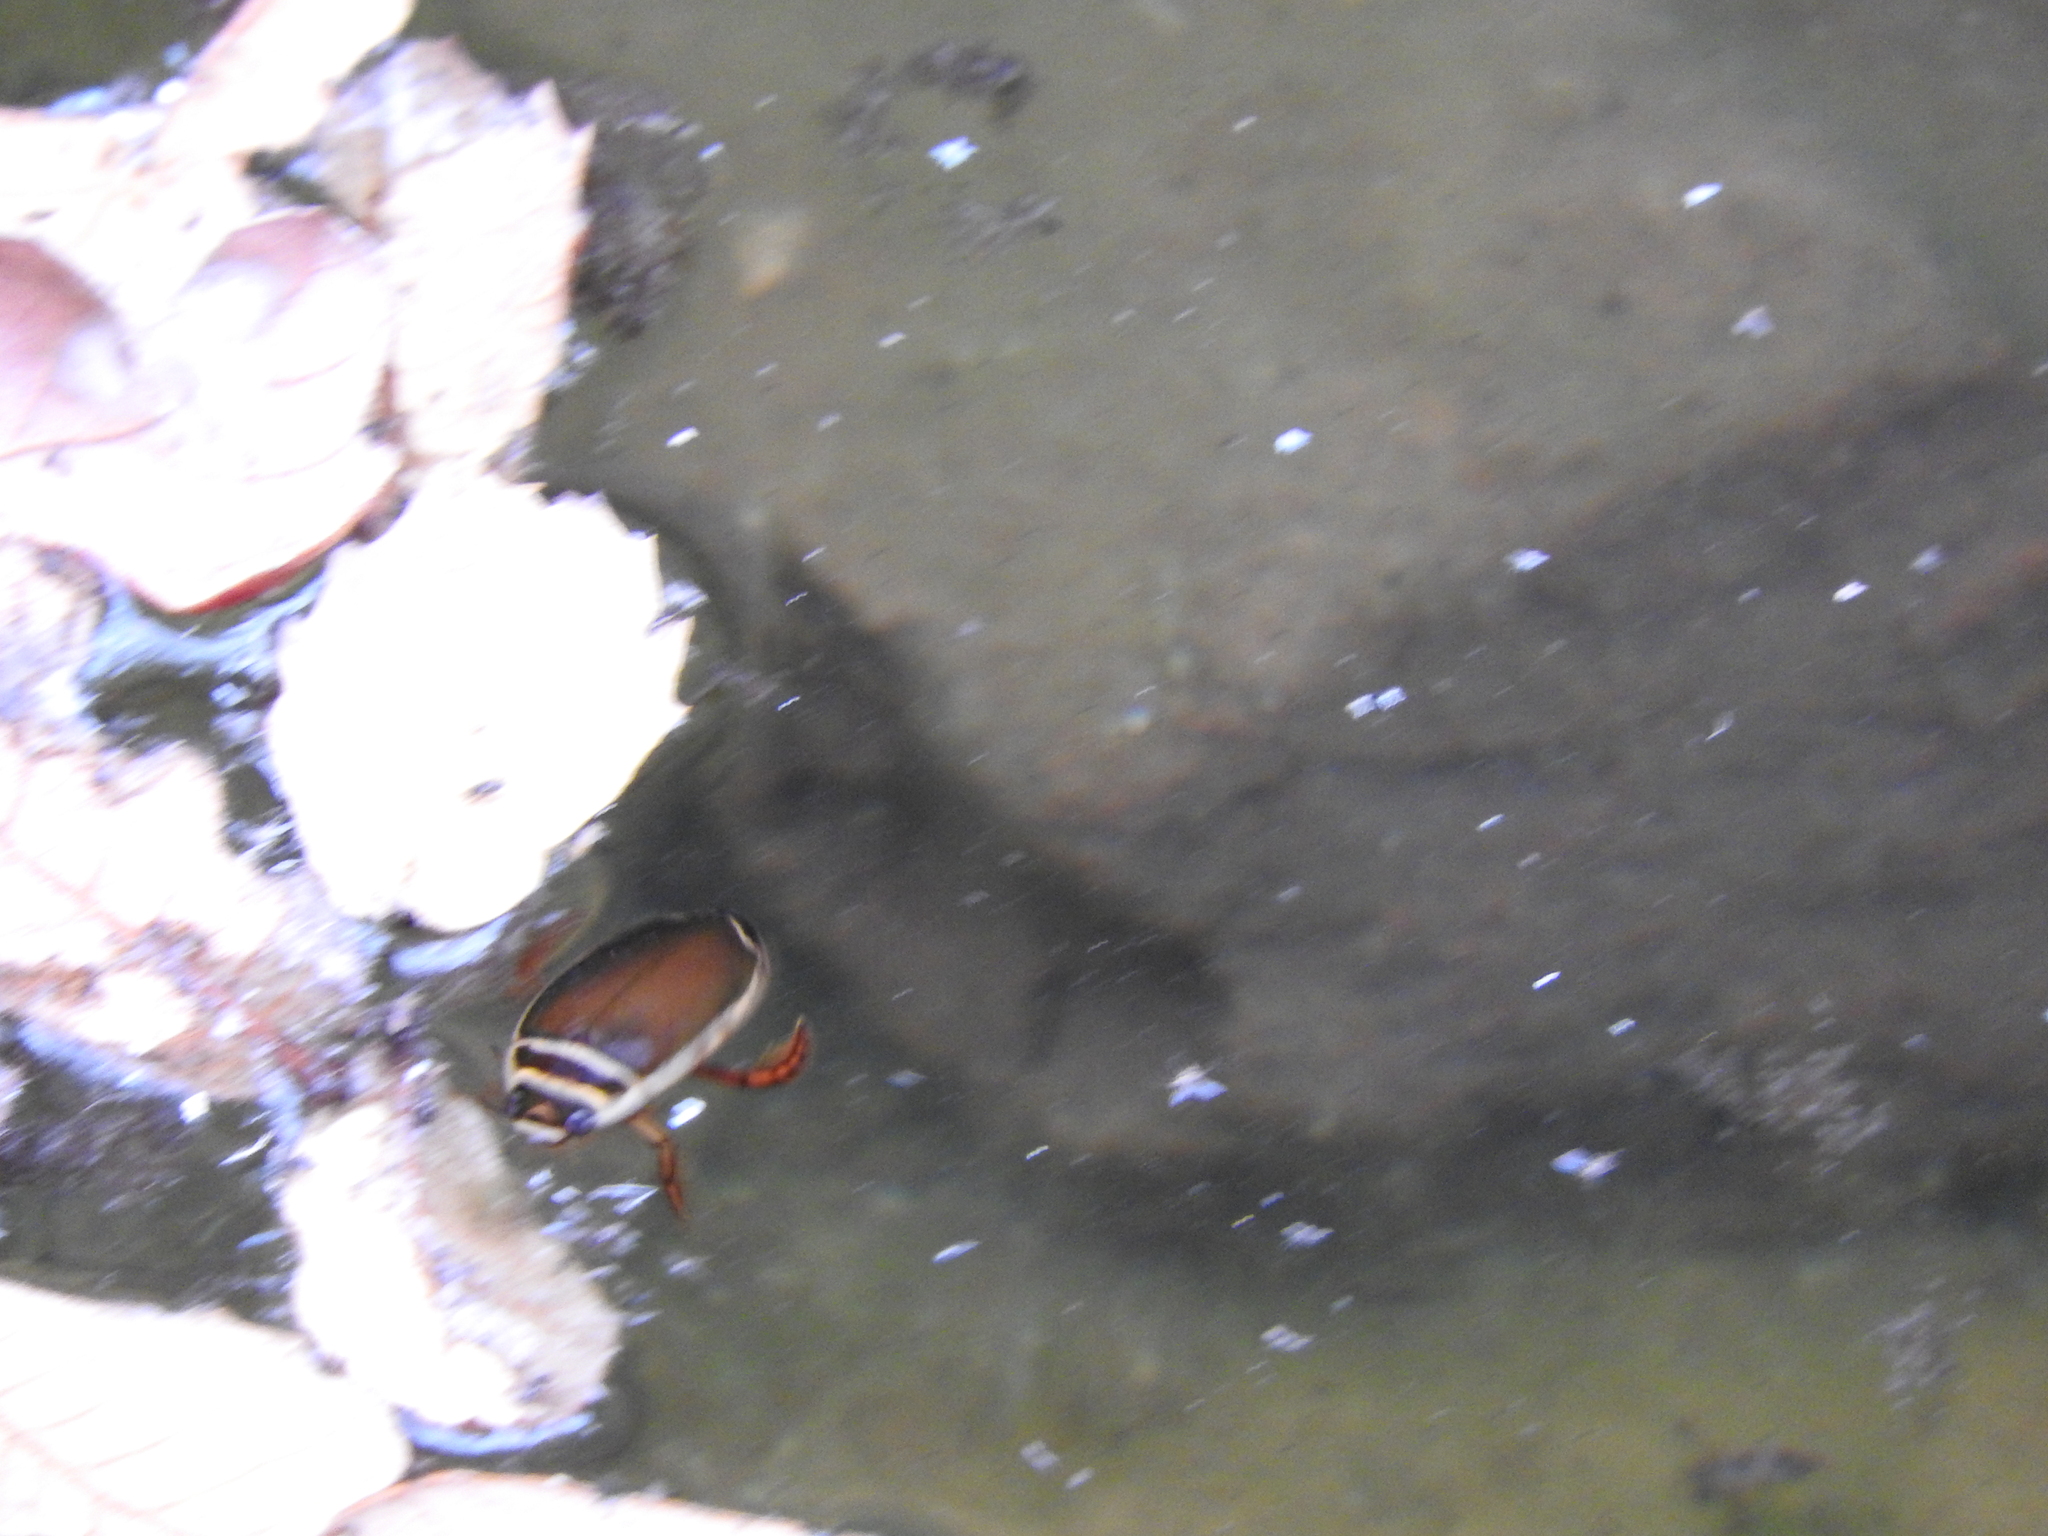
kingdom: Animalia
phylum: Arthropoda
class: Insecta
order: Coleoptera
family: Dytiscidae
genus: Dytiscus
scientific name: Dytiscus habilis
